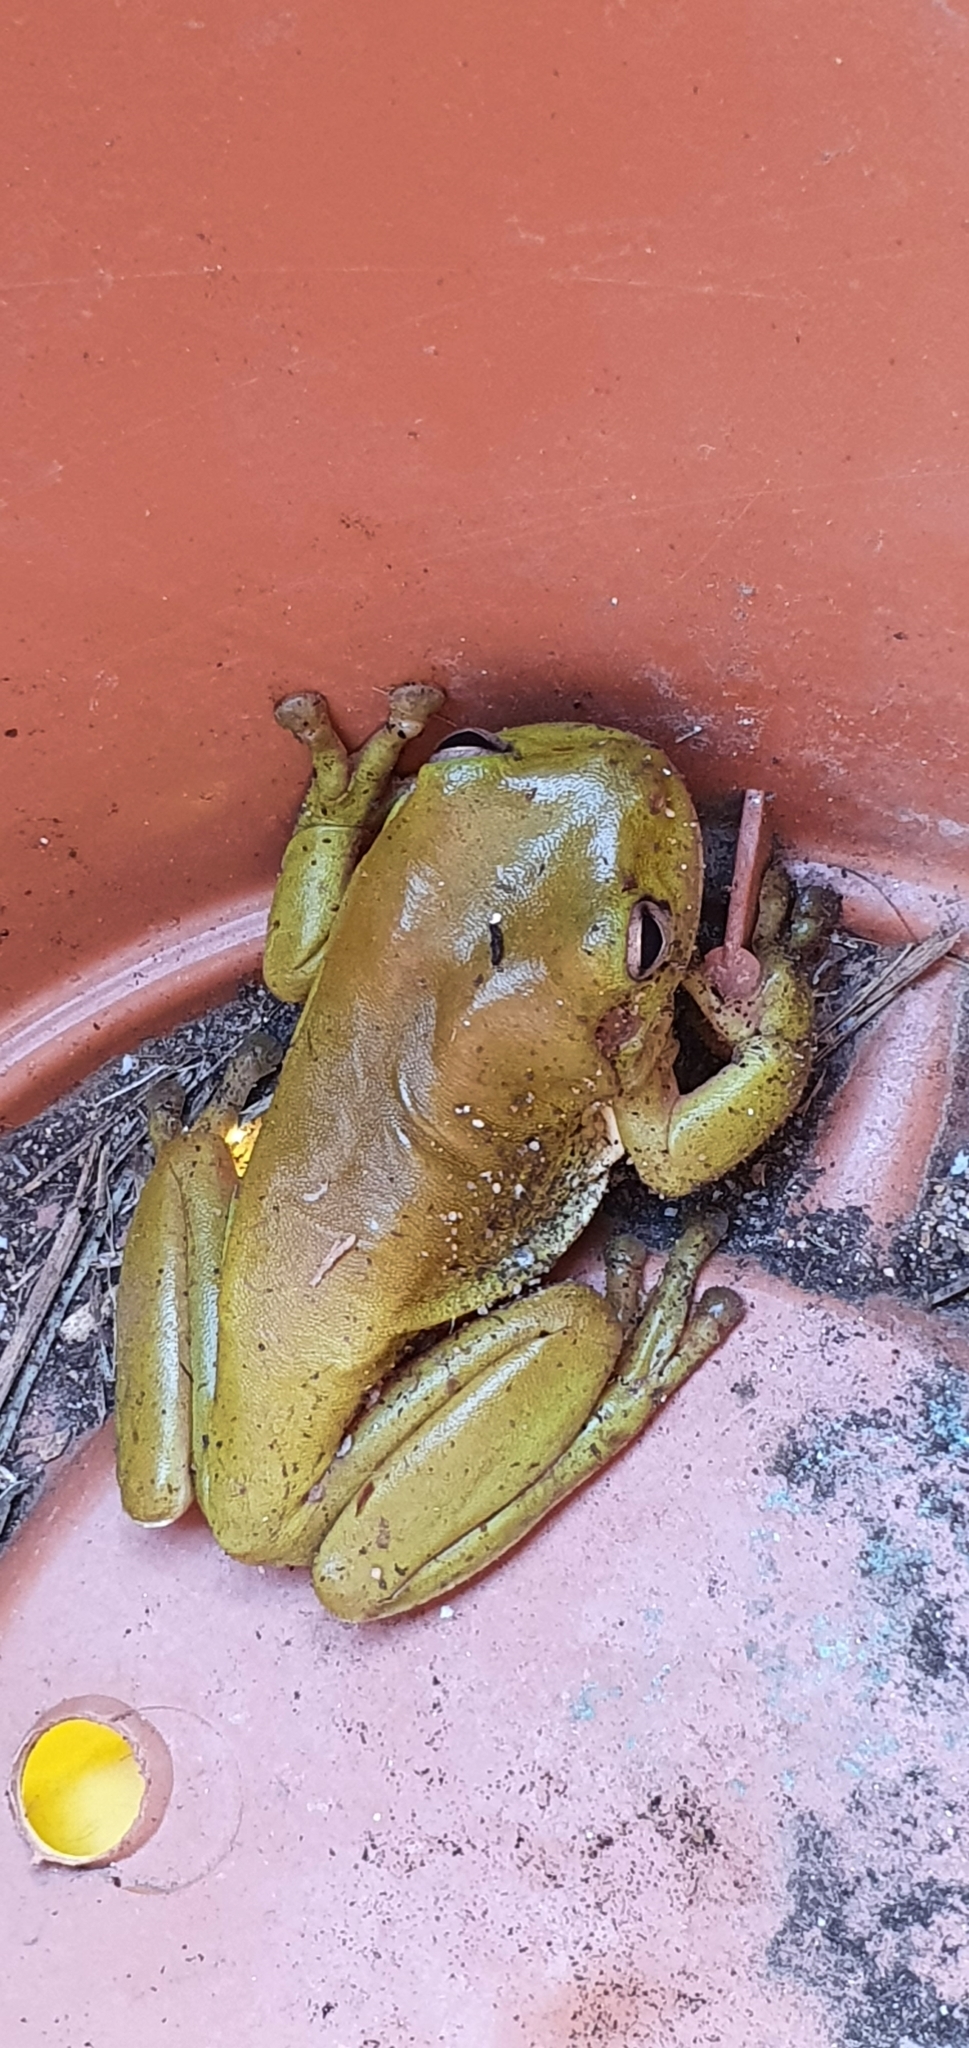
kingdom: Animalia
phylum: Chordata
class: Amphibia
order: Anura
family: Pelodryadidae
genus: Ranoidea
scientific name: Ranoidea caerulea
